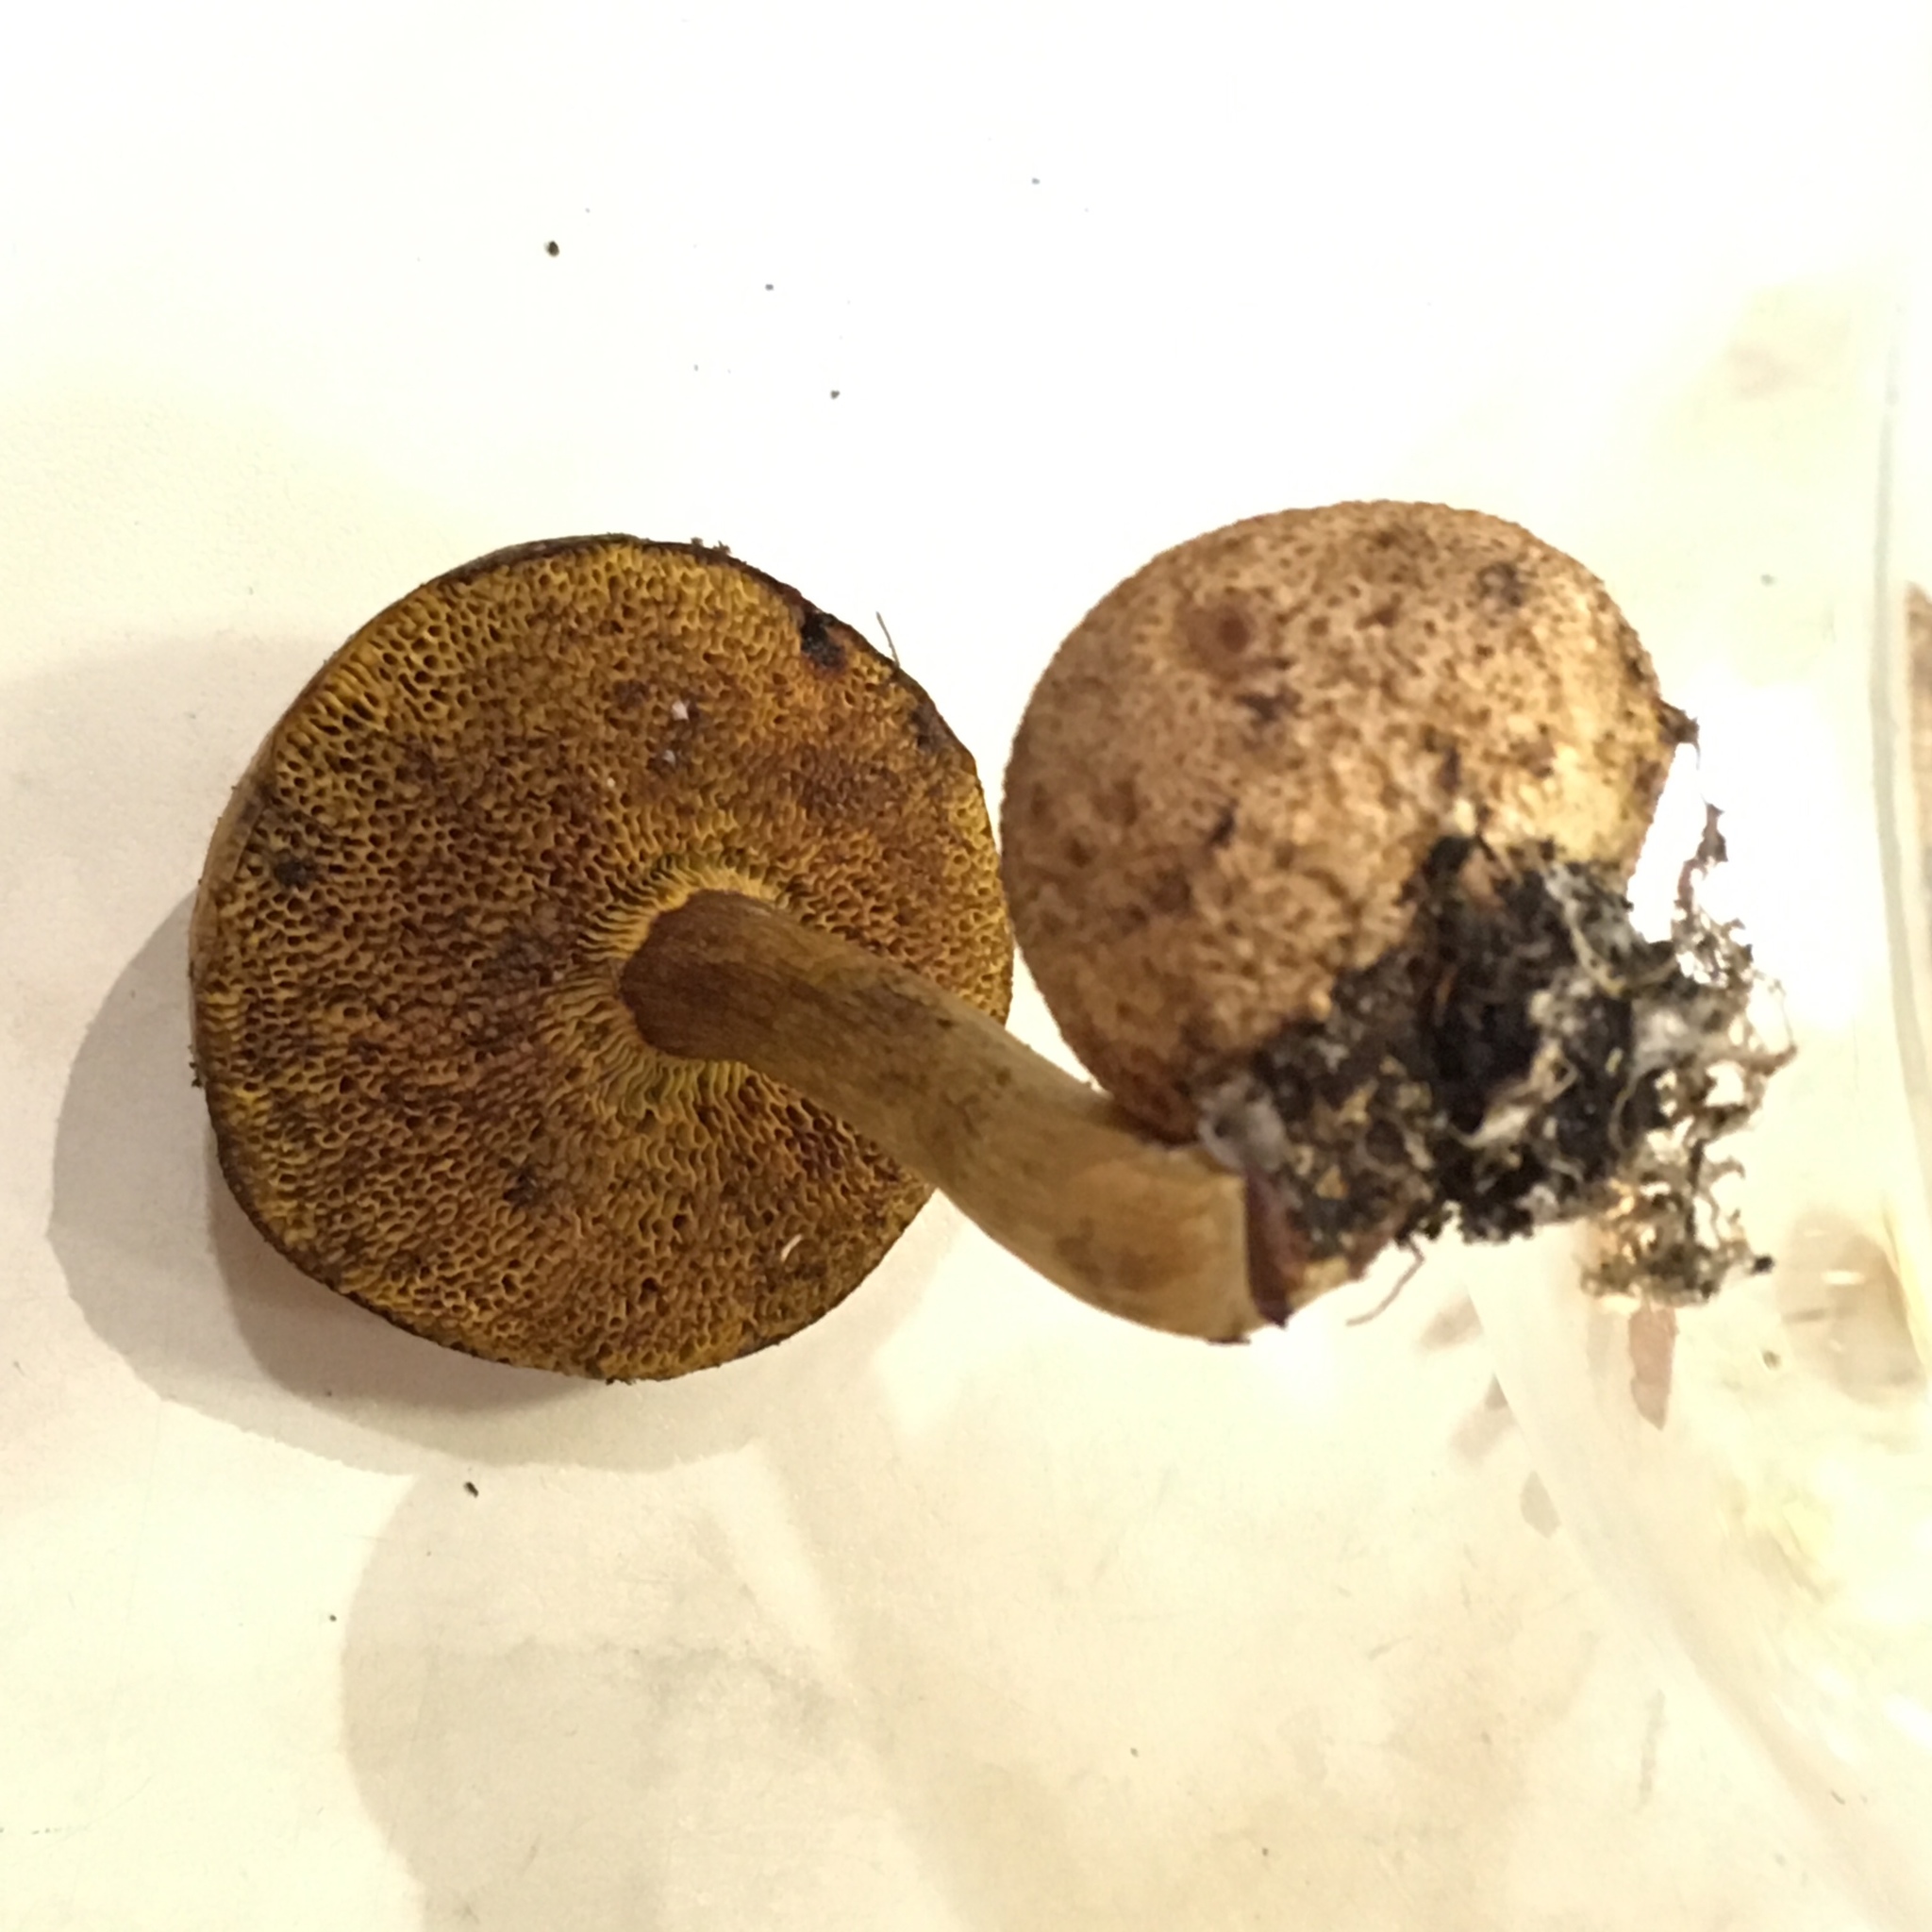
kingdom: Fungi
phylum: Basidiomycota
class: Agaricomycetes
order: Boletales
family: Boletaceae
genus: Pseudoboletus
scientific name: Pseudoboletus parasiticus
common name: Parasitic bolete
